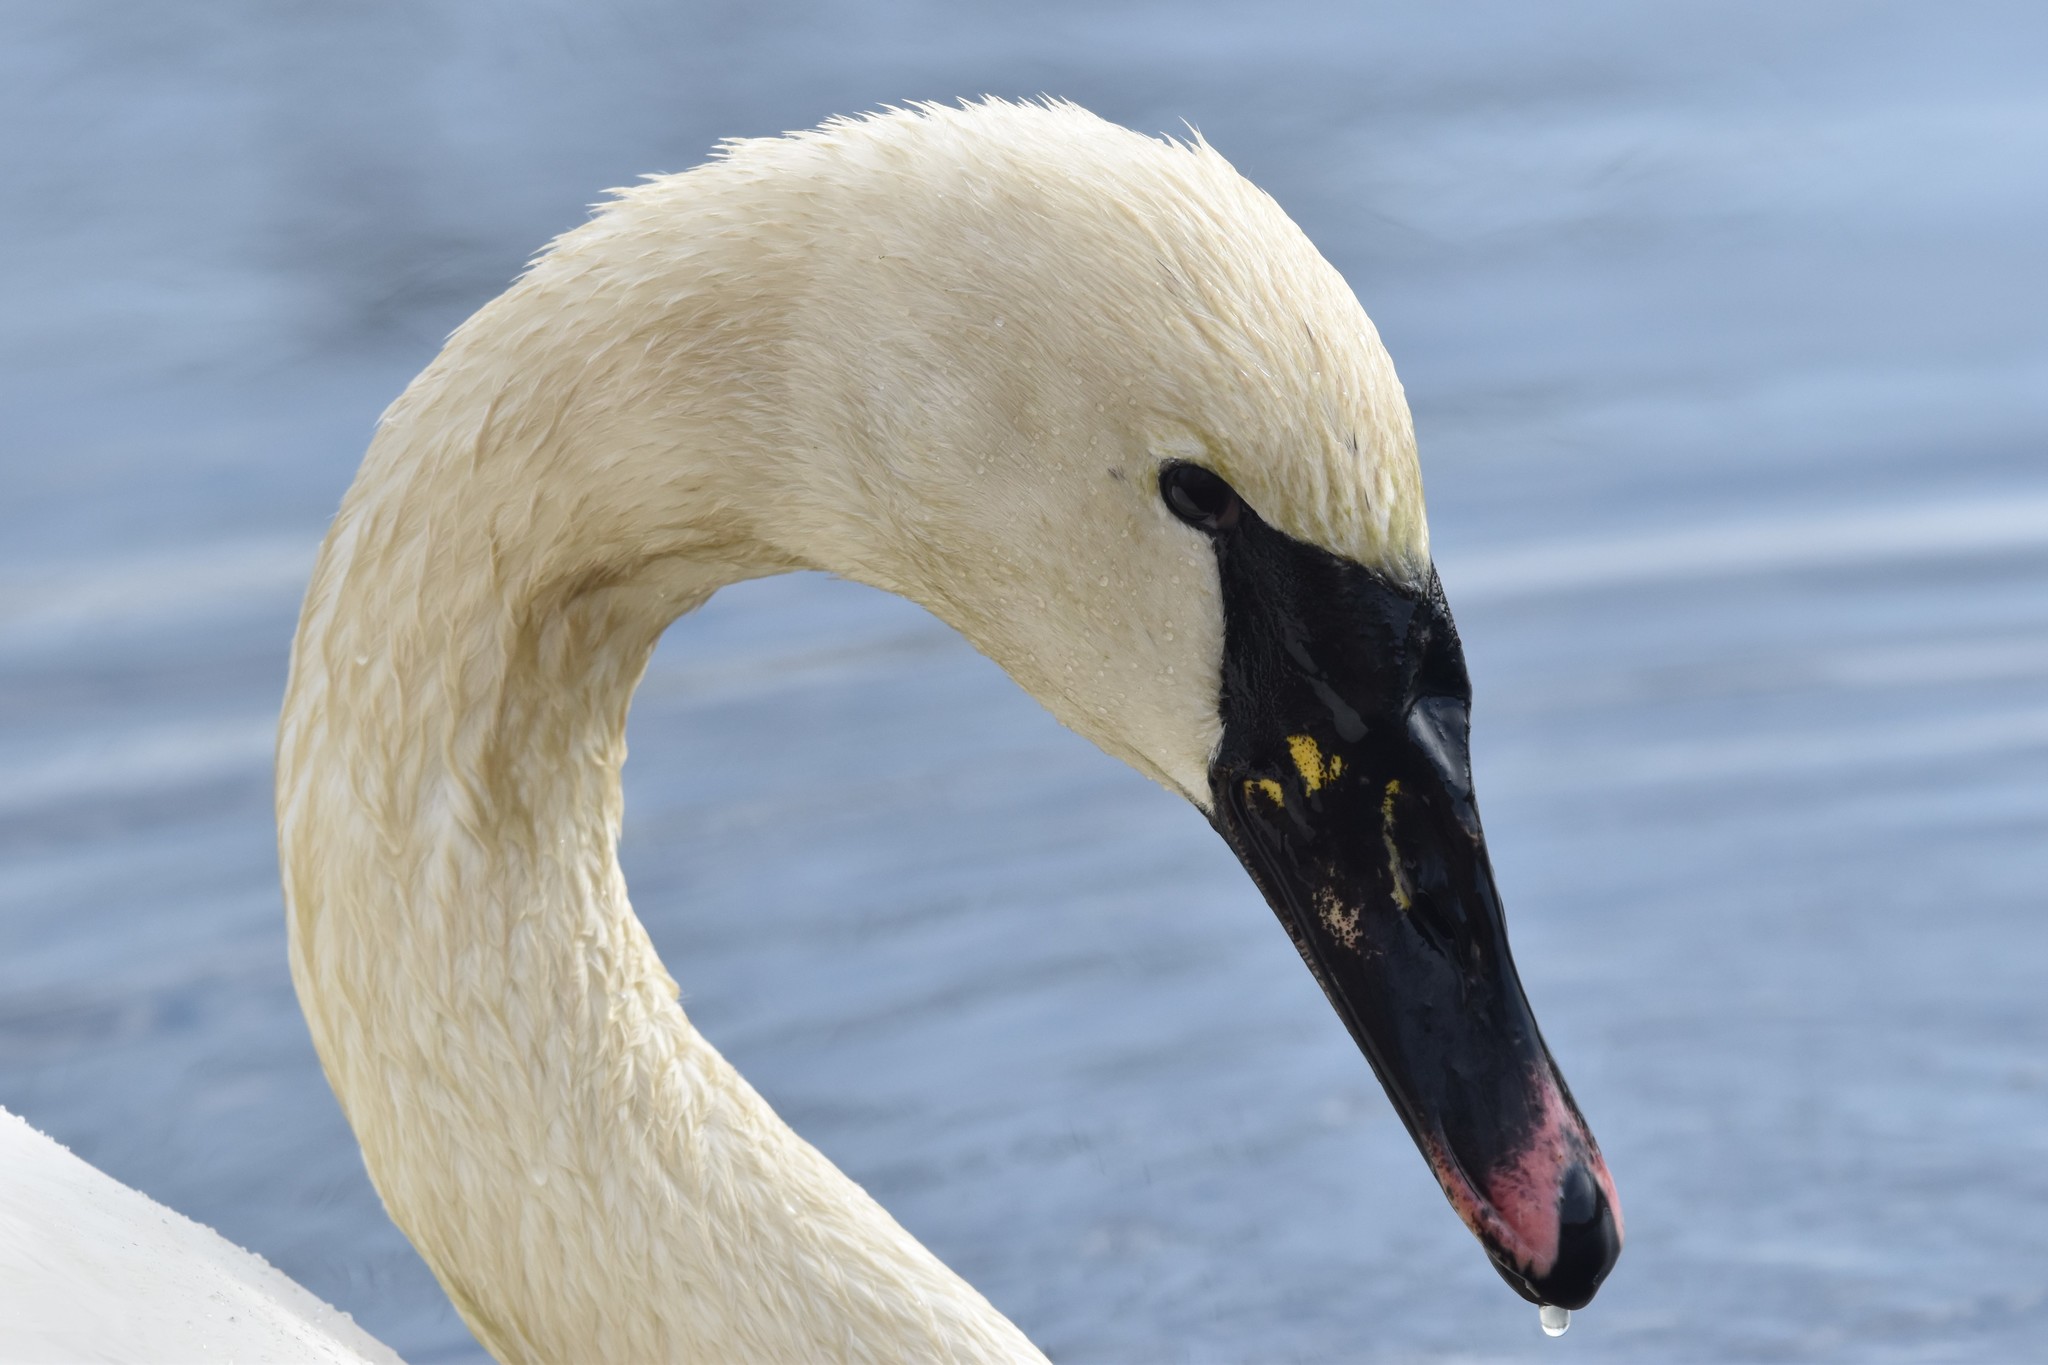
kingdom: Animalia
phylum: Chordata
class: Aves
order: Anseriformes
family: Anatidae
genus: Cygnus
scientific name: Cygnus
